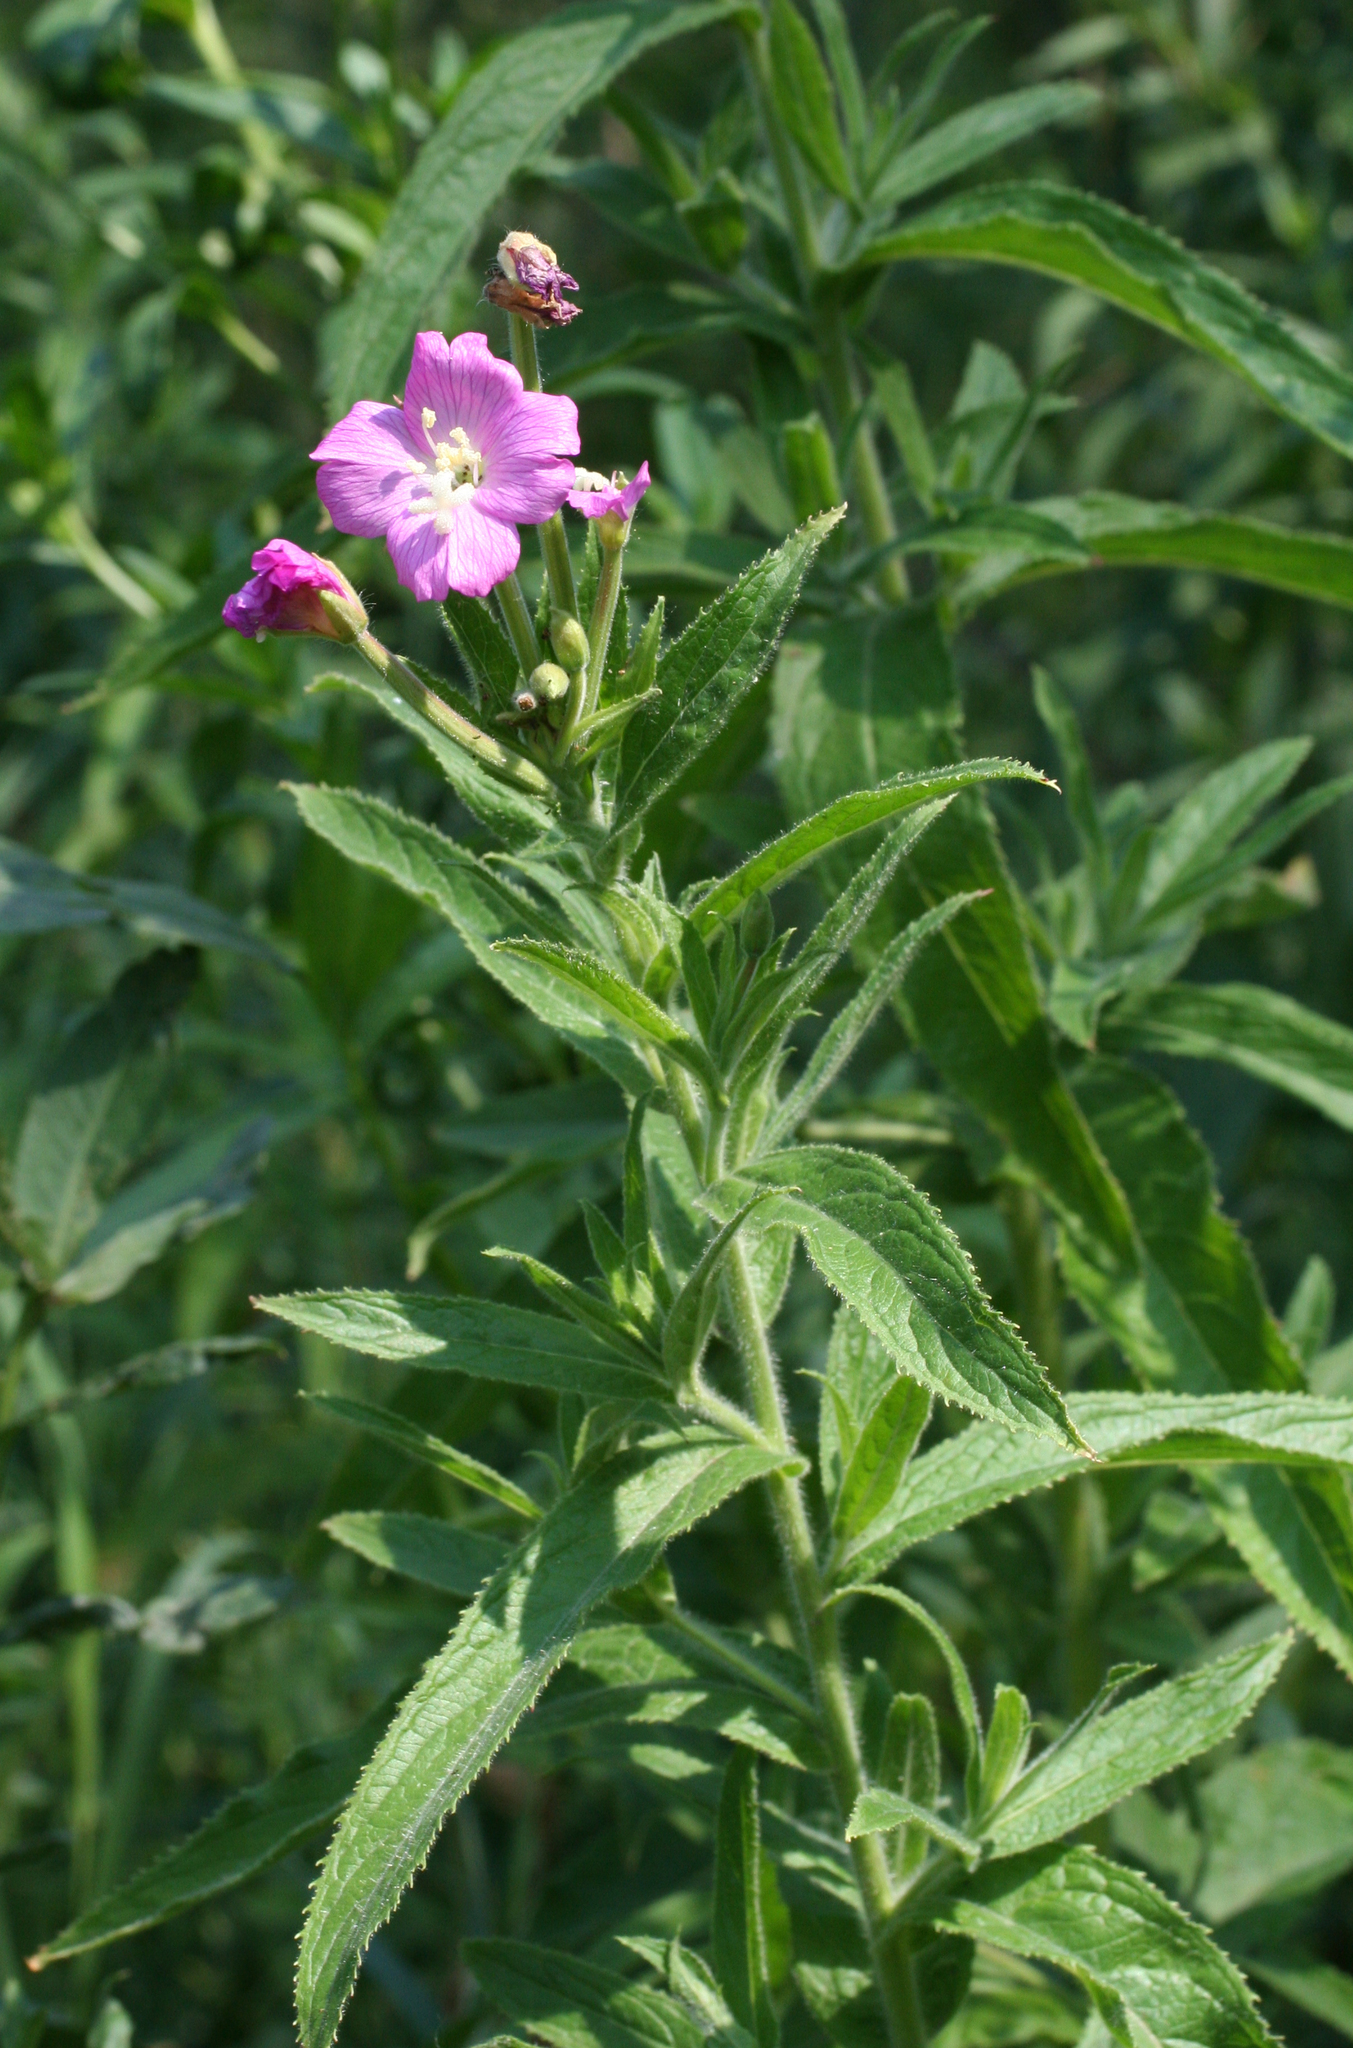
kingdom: Plantae
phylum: Tracheophyta
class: Magnoliopsida
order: Myrtales
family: Onagraceae
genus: Epilobium
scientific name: Epilobium hirsutum
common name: Great willowherb
